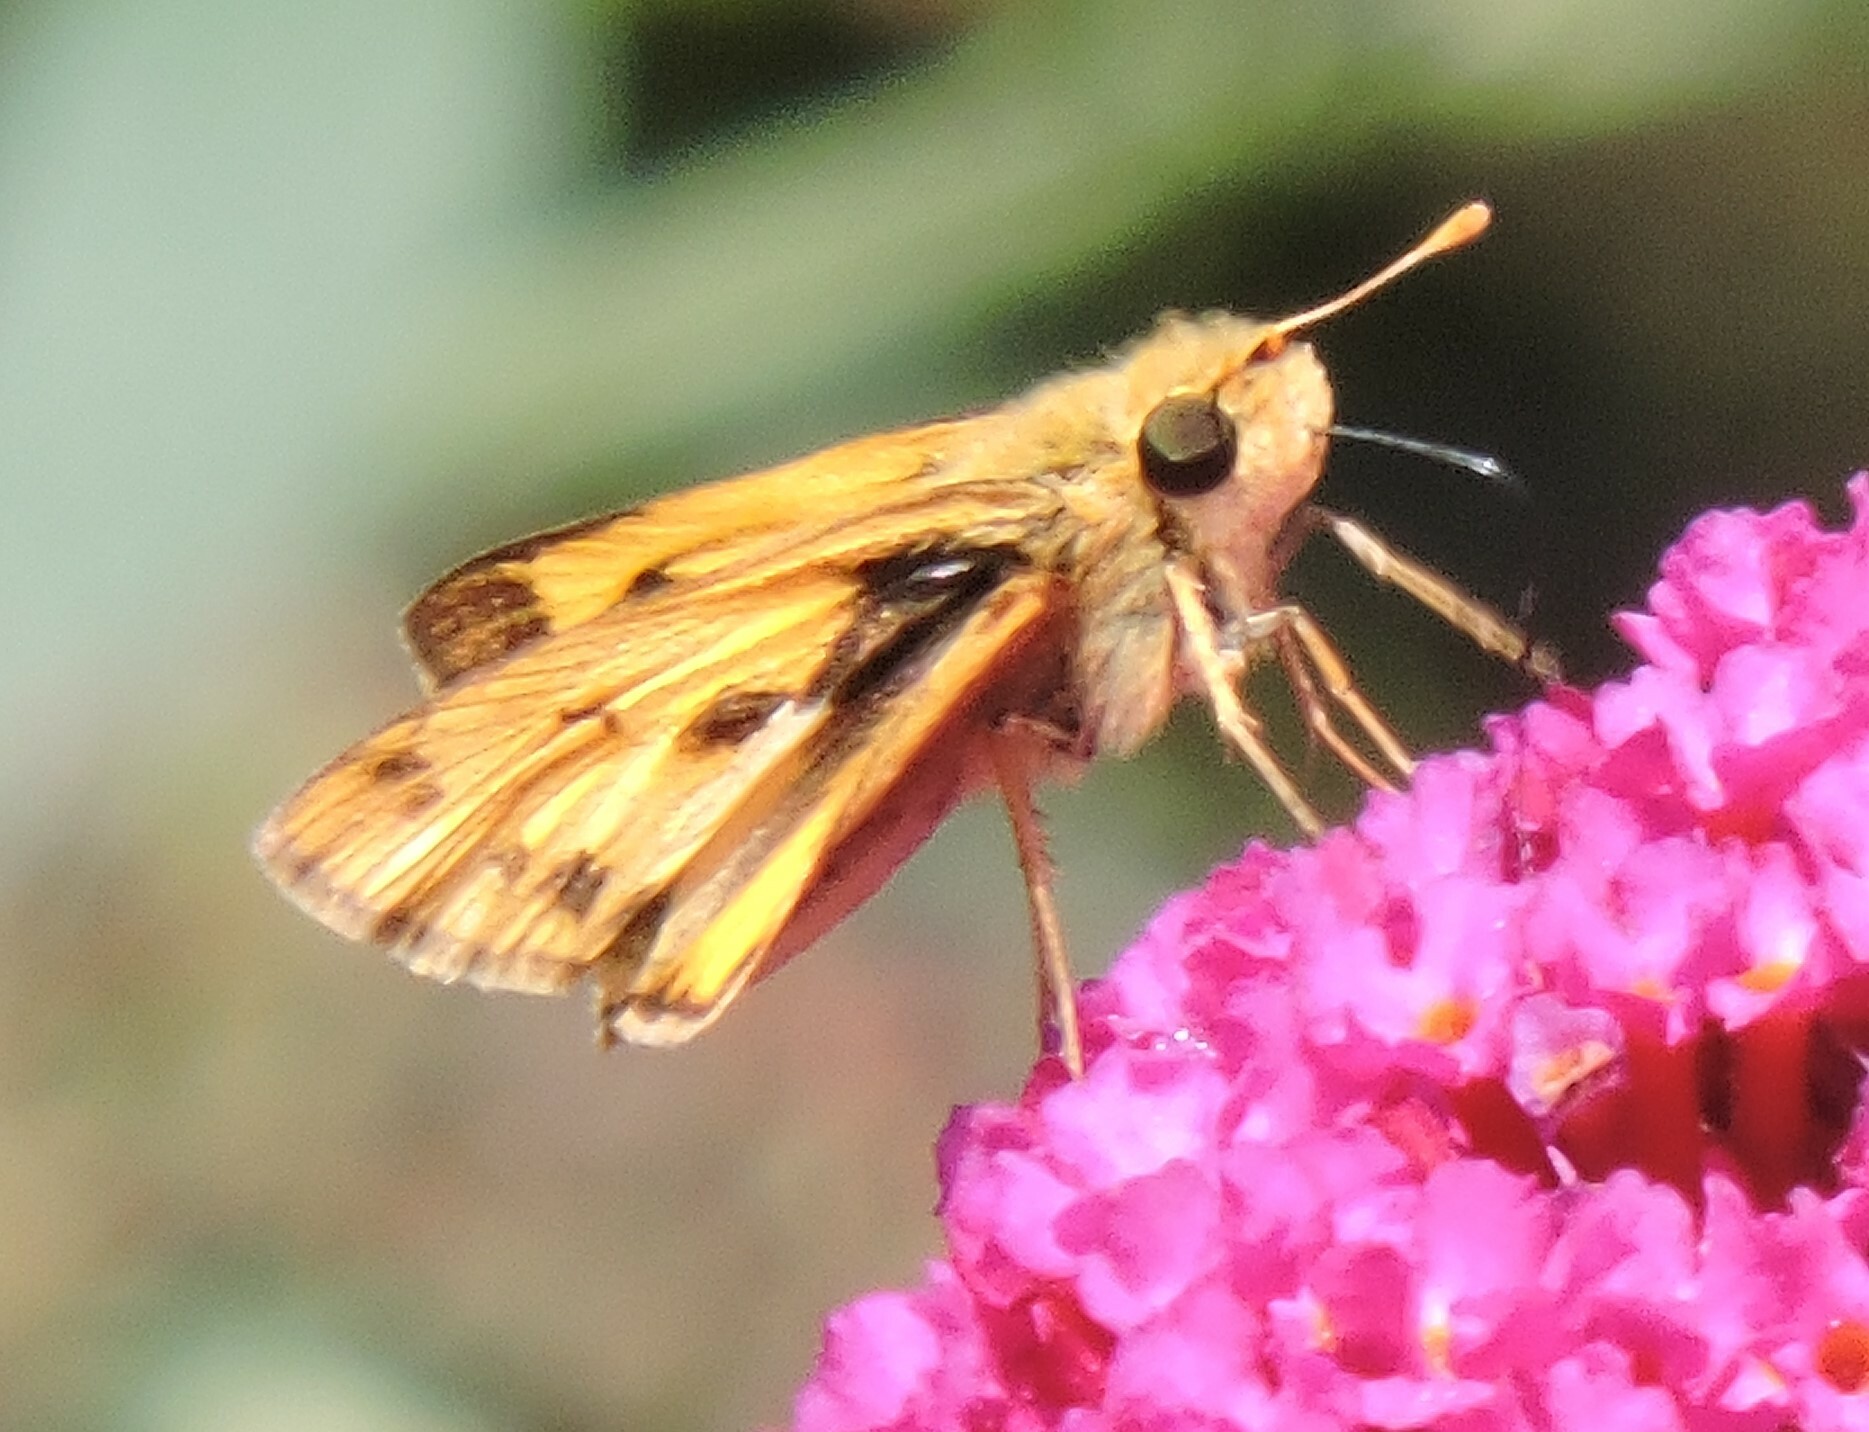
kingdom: Animalia
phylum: Arthropoda
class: Insecta
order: Lepidoptera
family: Hesperiidae
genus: Hylephila
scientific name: Hylephila phyleus
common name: Fiery skipper
